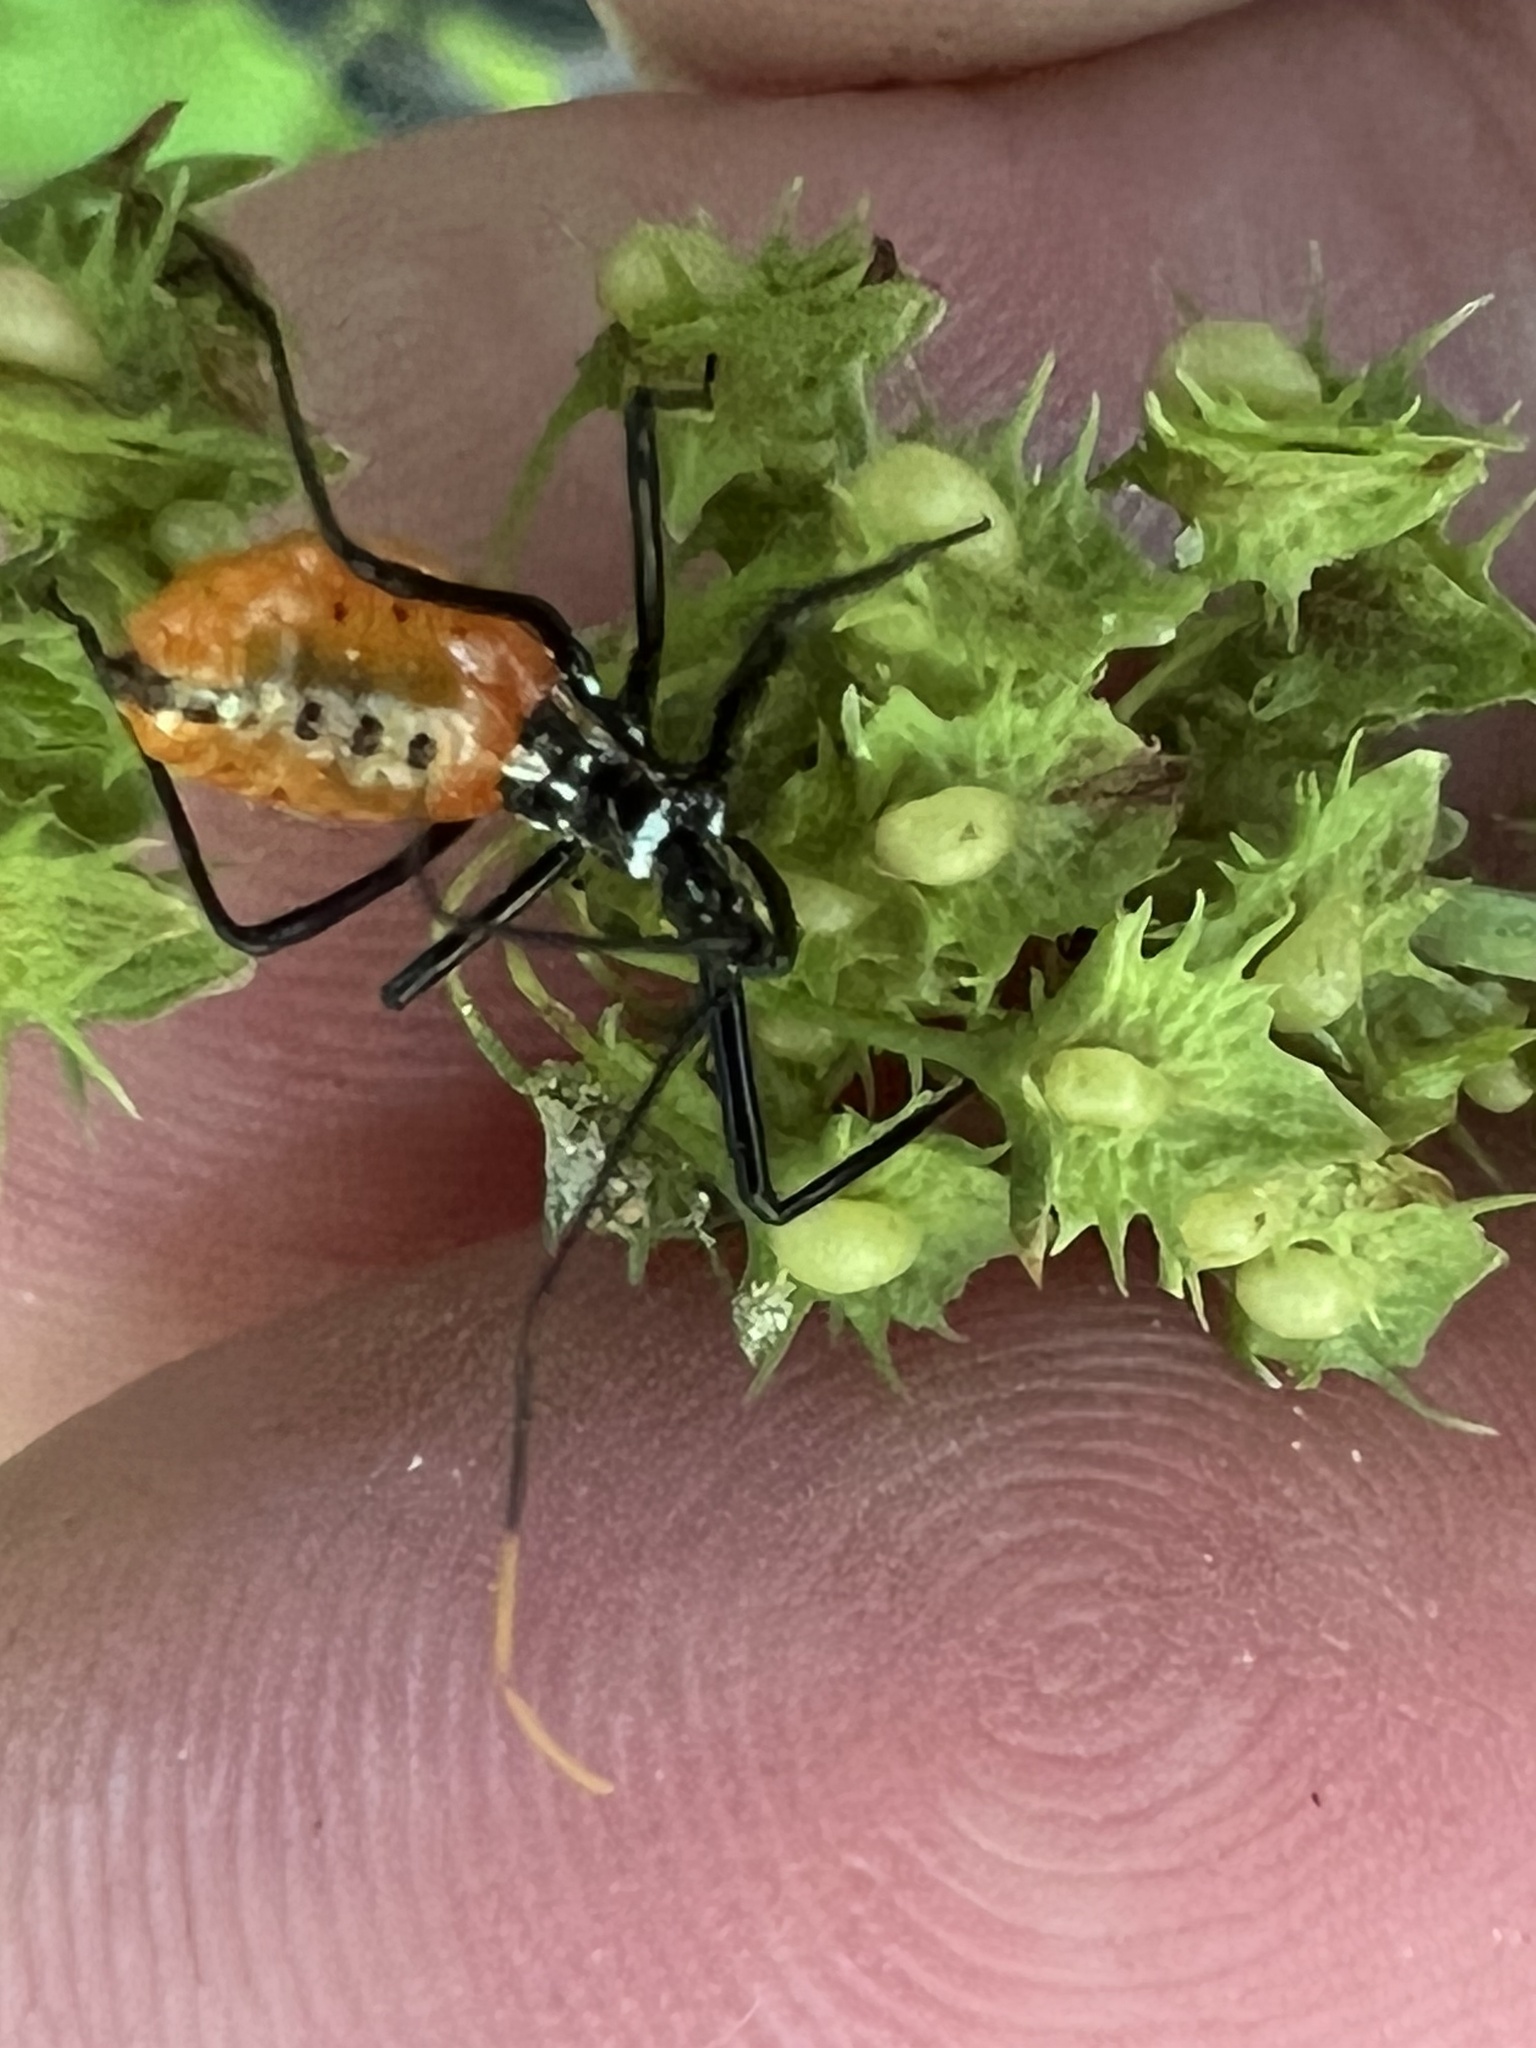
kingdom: Animalia
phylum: Arthropoda
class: Insecta
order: Hemiptera
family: Reduviidae
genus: Arilus
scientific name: Arilus cristatus
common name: North american wheel bug
